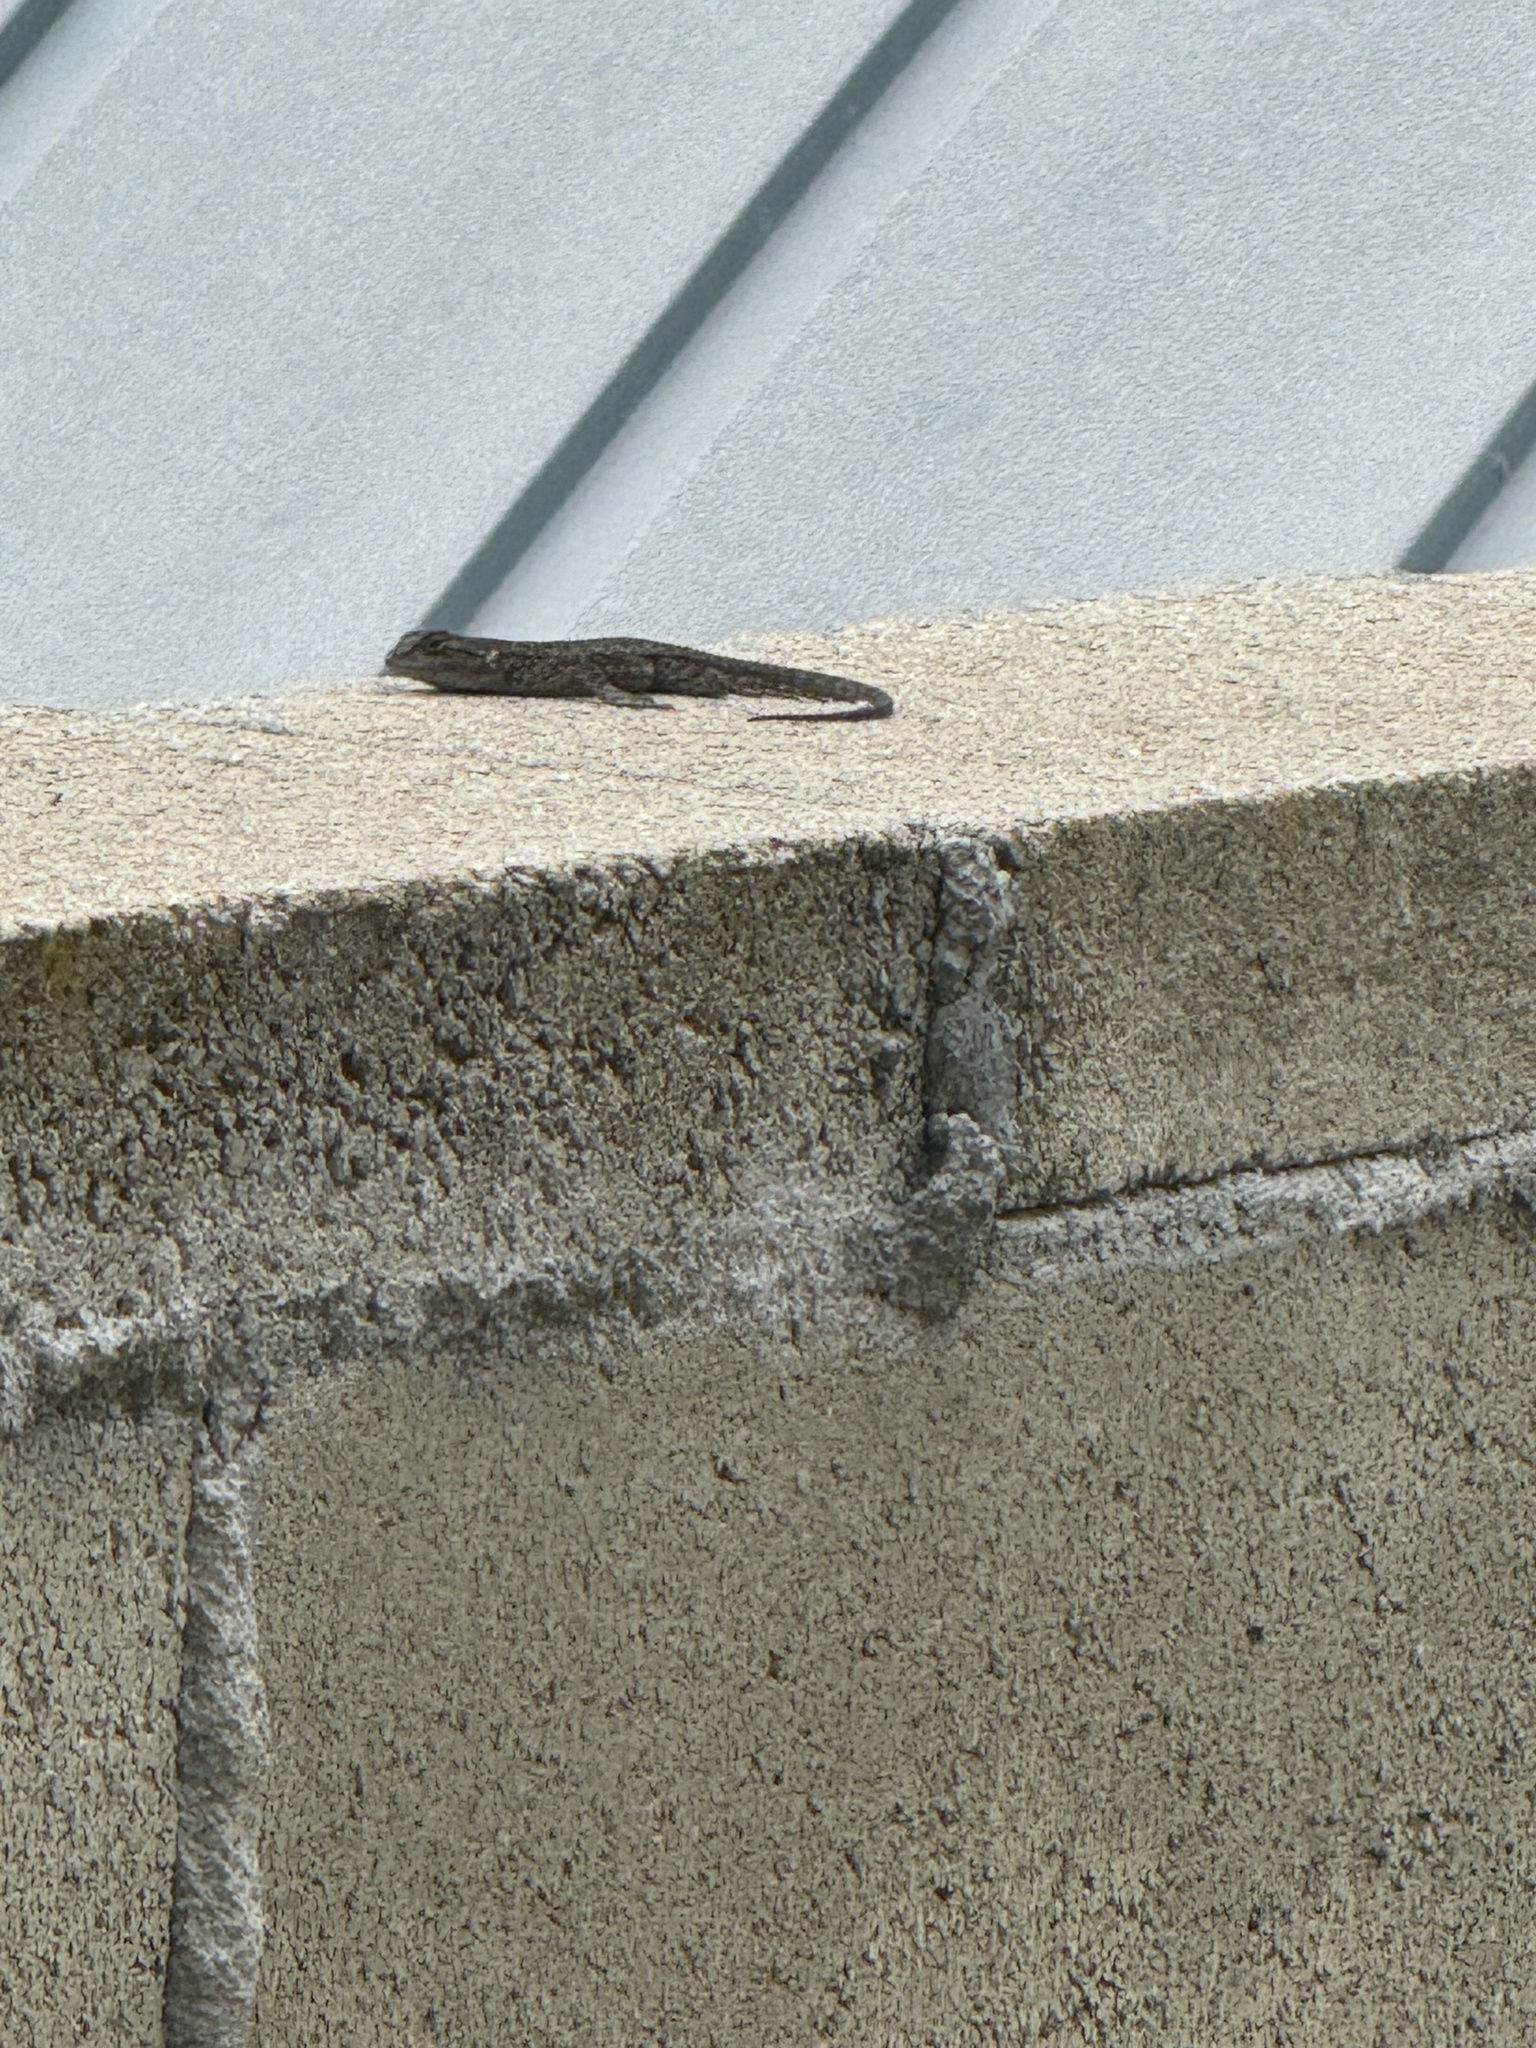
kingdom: Animalia
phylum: Chordata
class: Squamata
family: Phrynosomatidae
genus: Sceloporus
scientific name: Sceloporus occidentalis
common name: Western fence lizard
